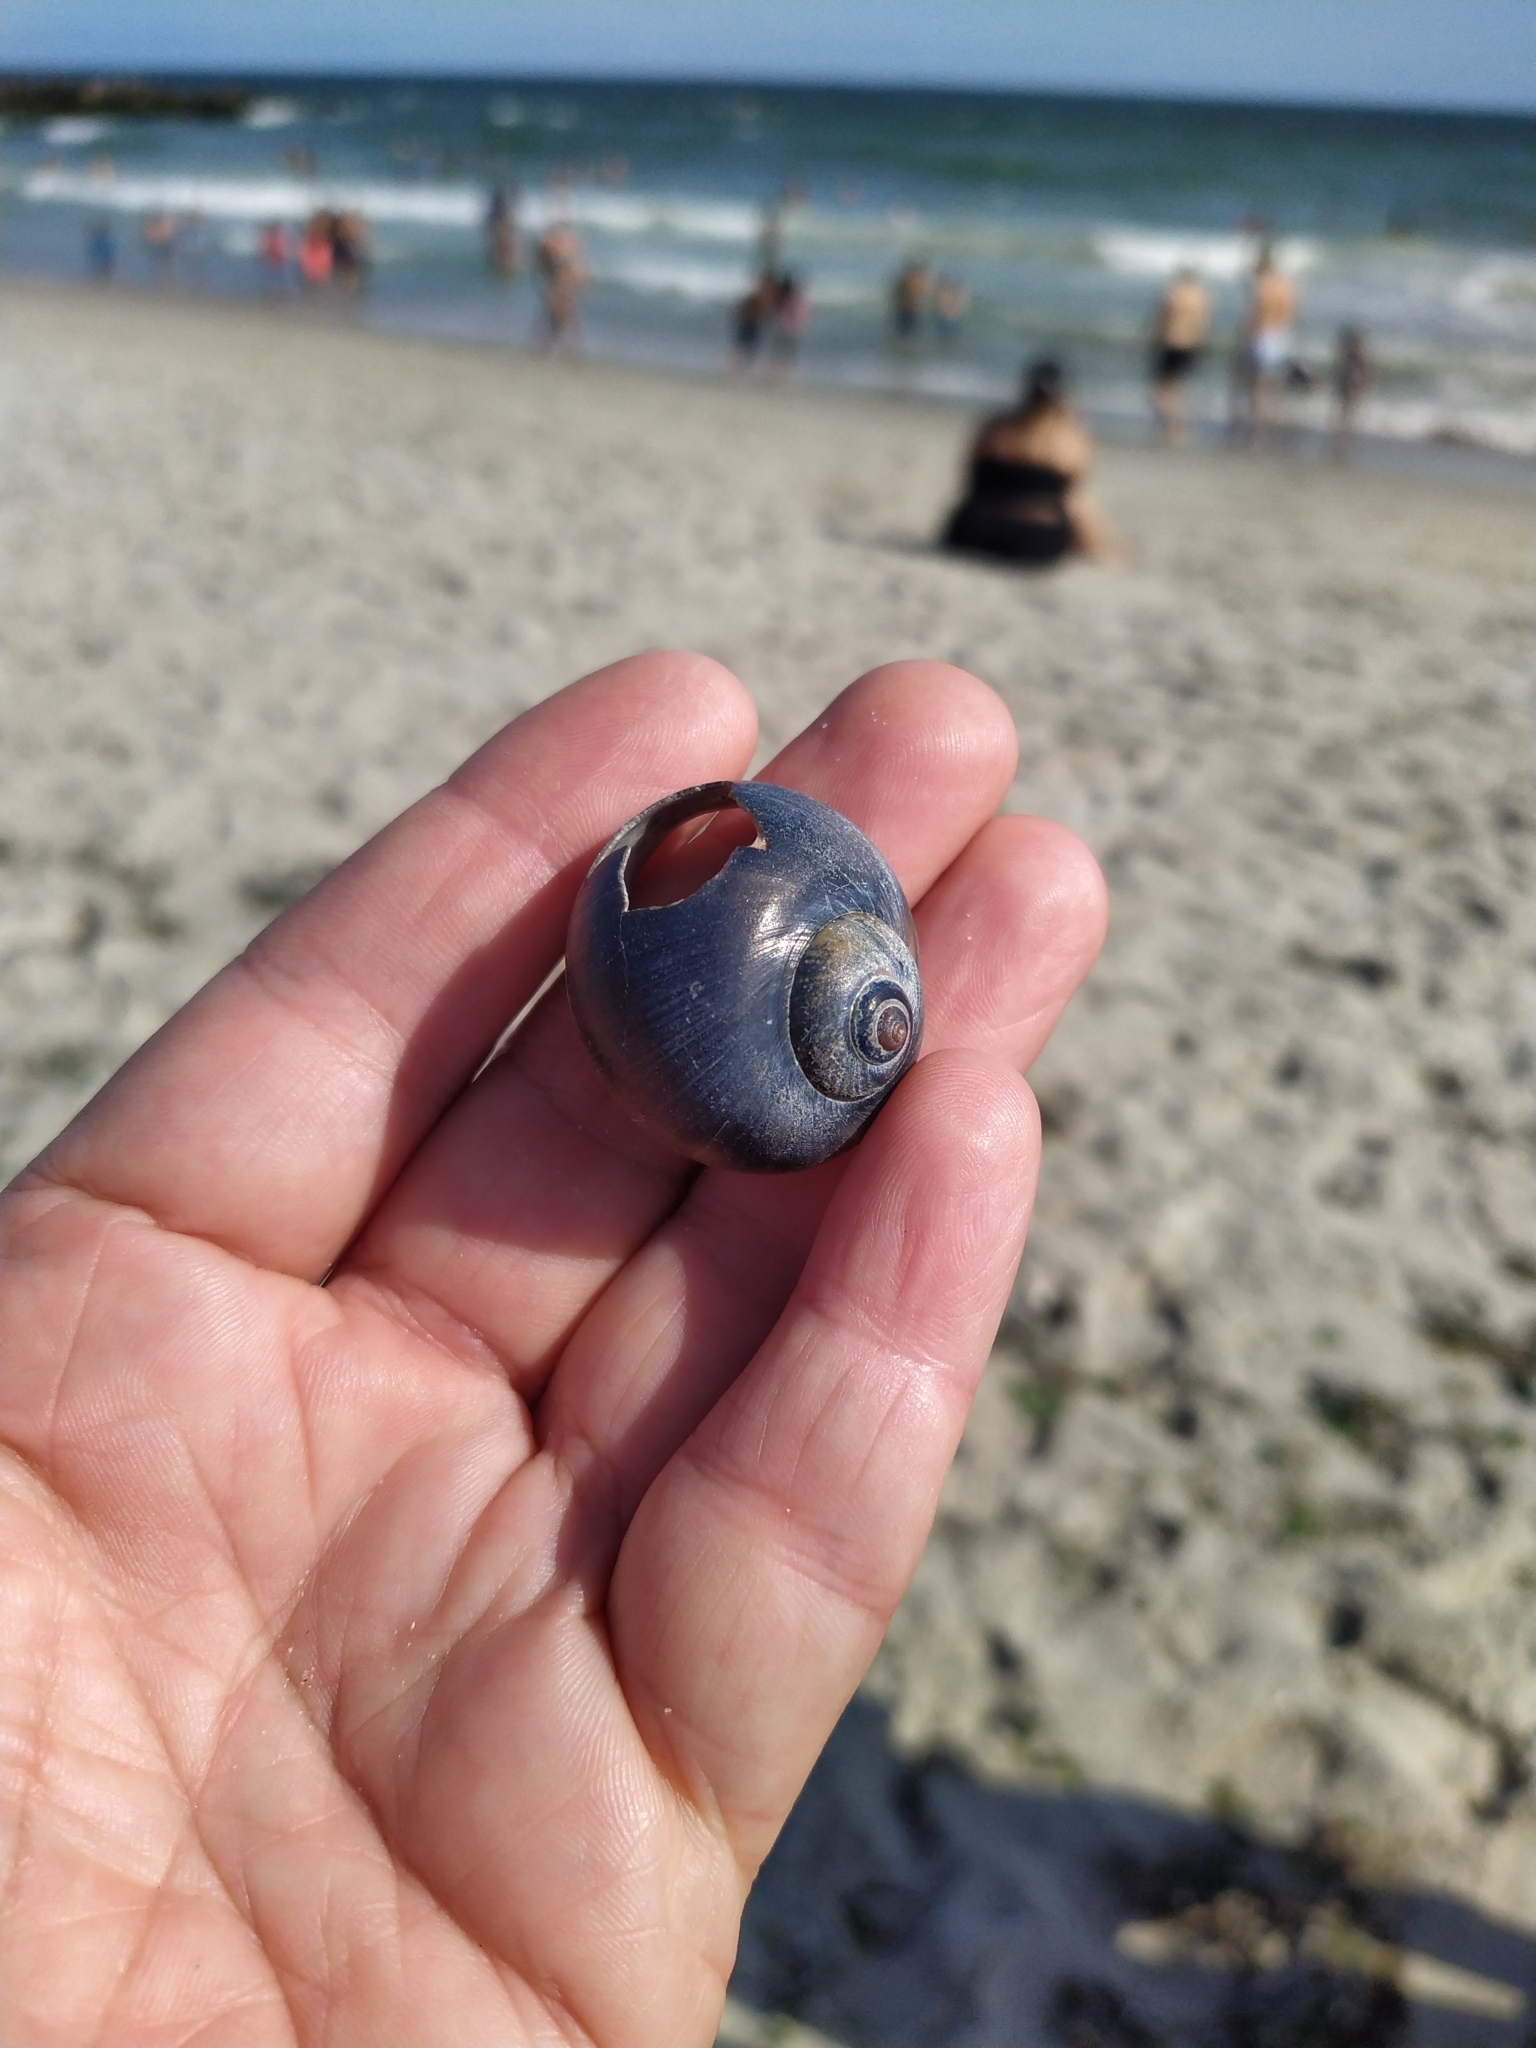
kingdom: Animalia
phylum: Mollusca
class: Gastropoda
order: Littorinimorpha
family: Naticidae
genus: Euspira
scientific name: Euspira heros
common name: Common northern moonsnail
